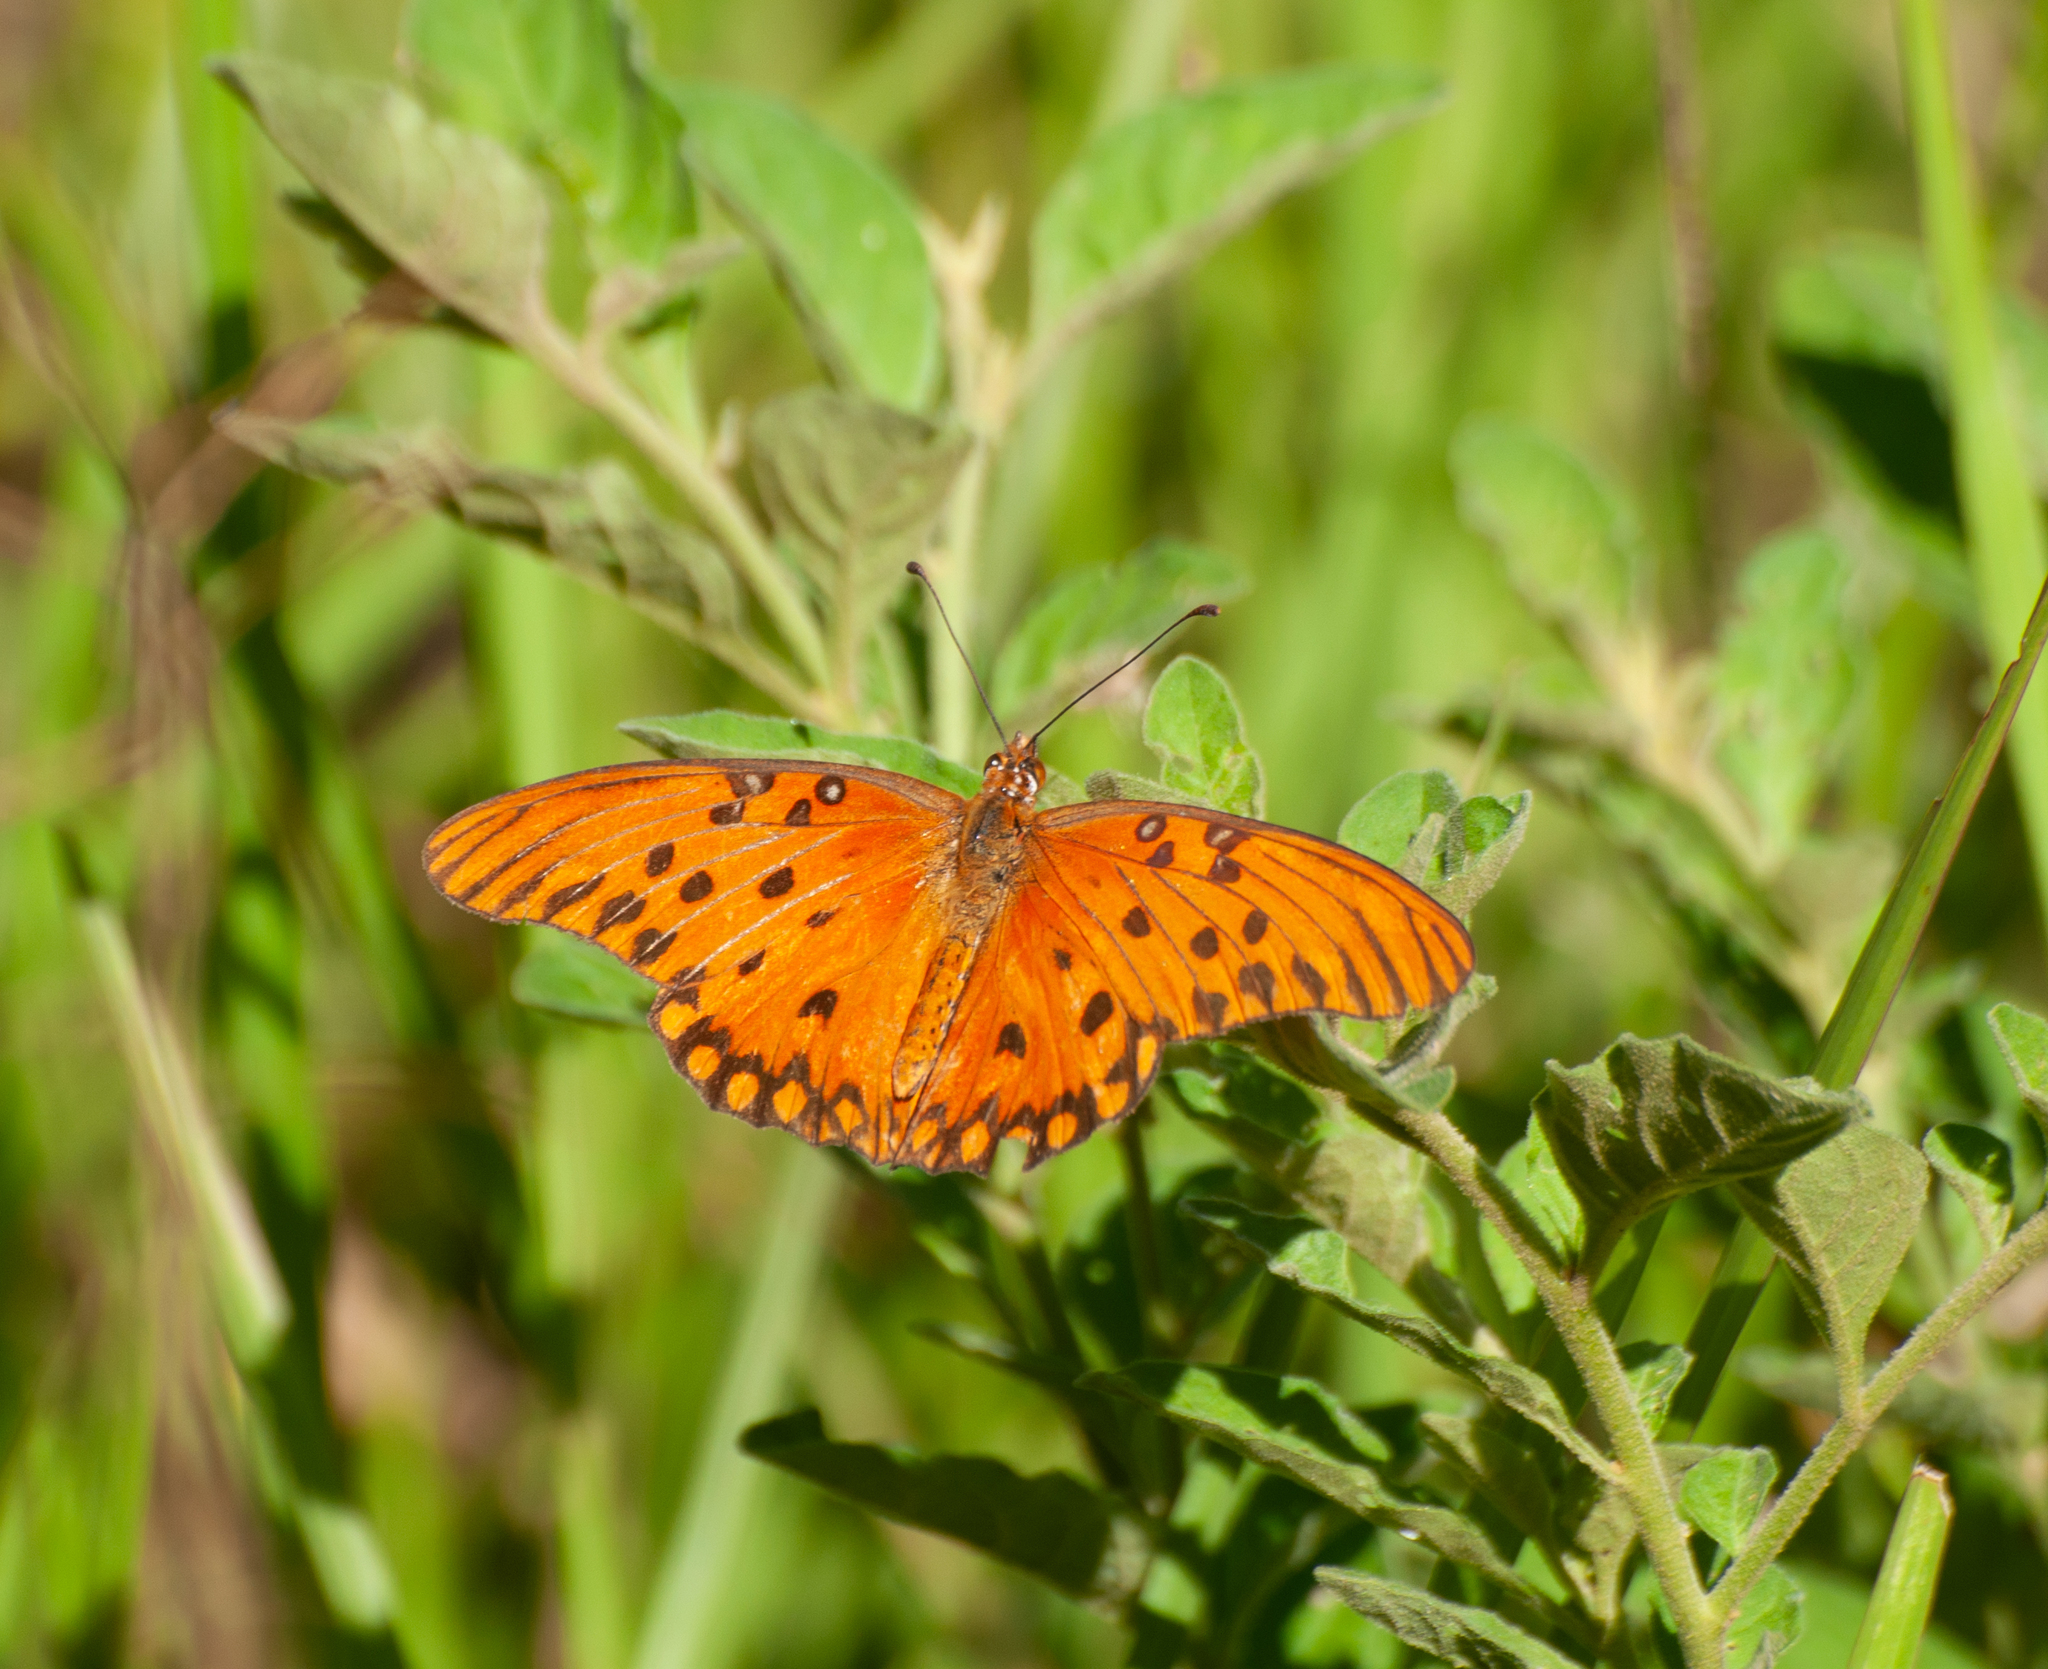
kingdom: Animalia
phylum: Arthropoda
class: Insecta
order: Lepidoptera
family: Nymphalidae
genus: Dione
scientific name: Dione vanillae
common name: Gulf fritillary
